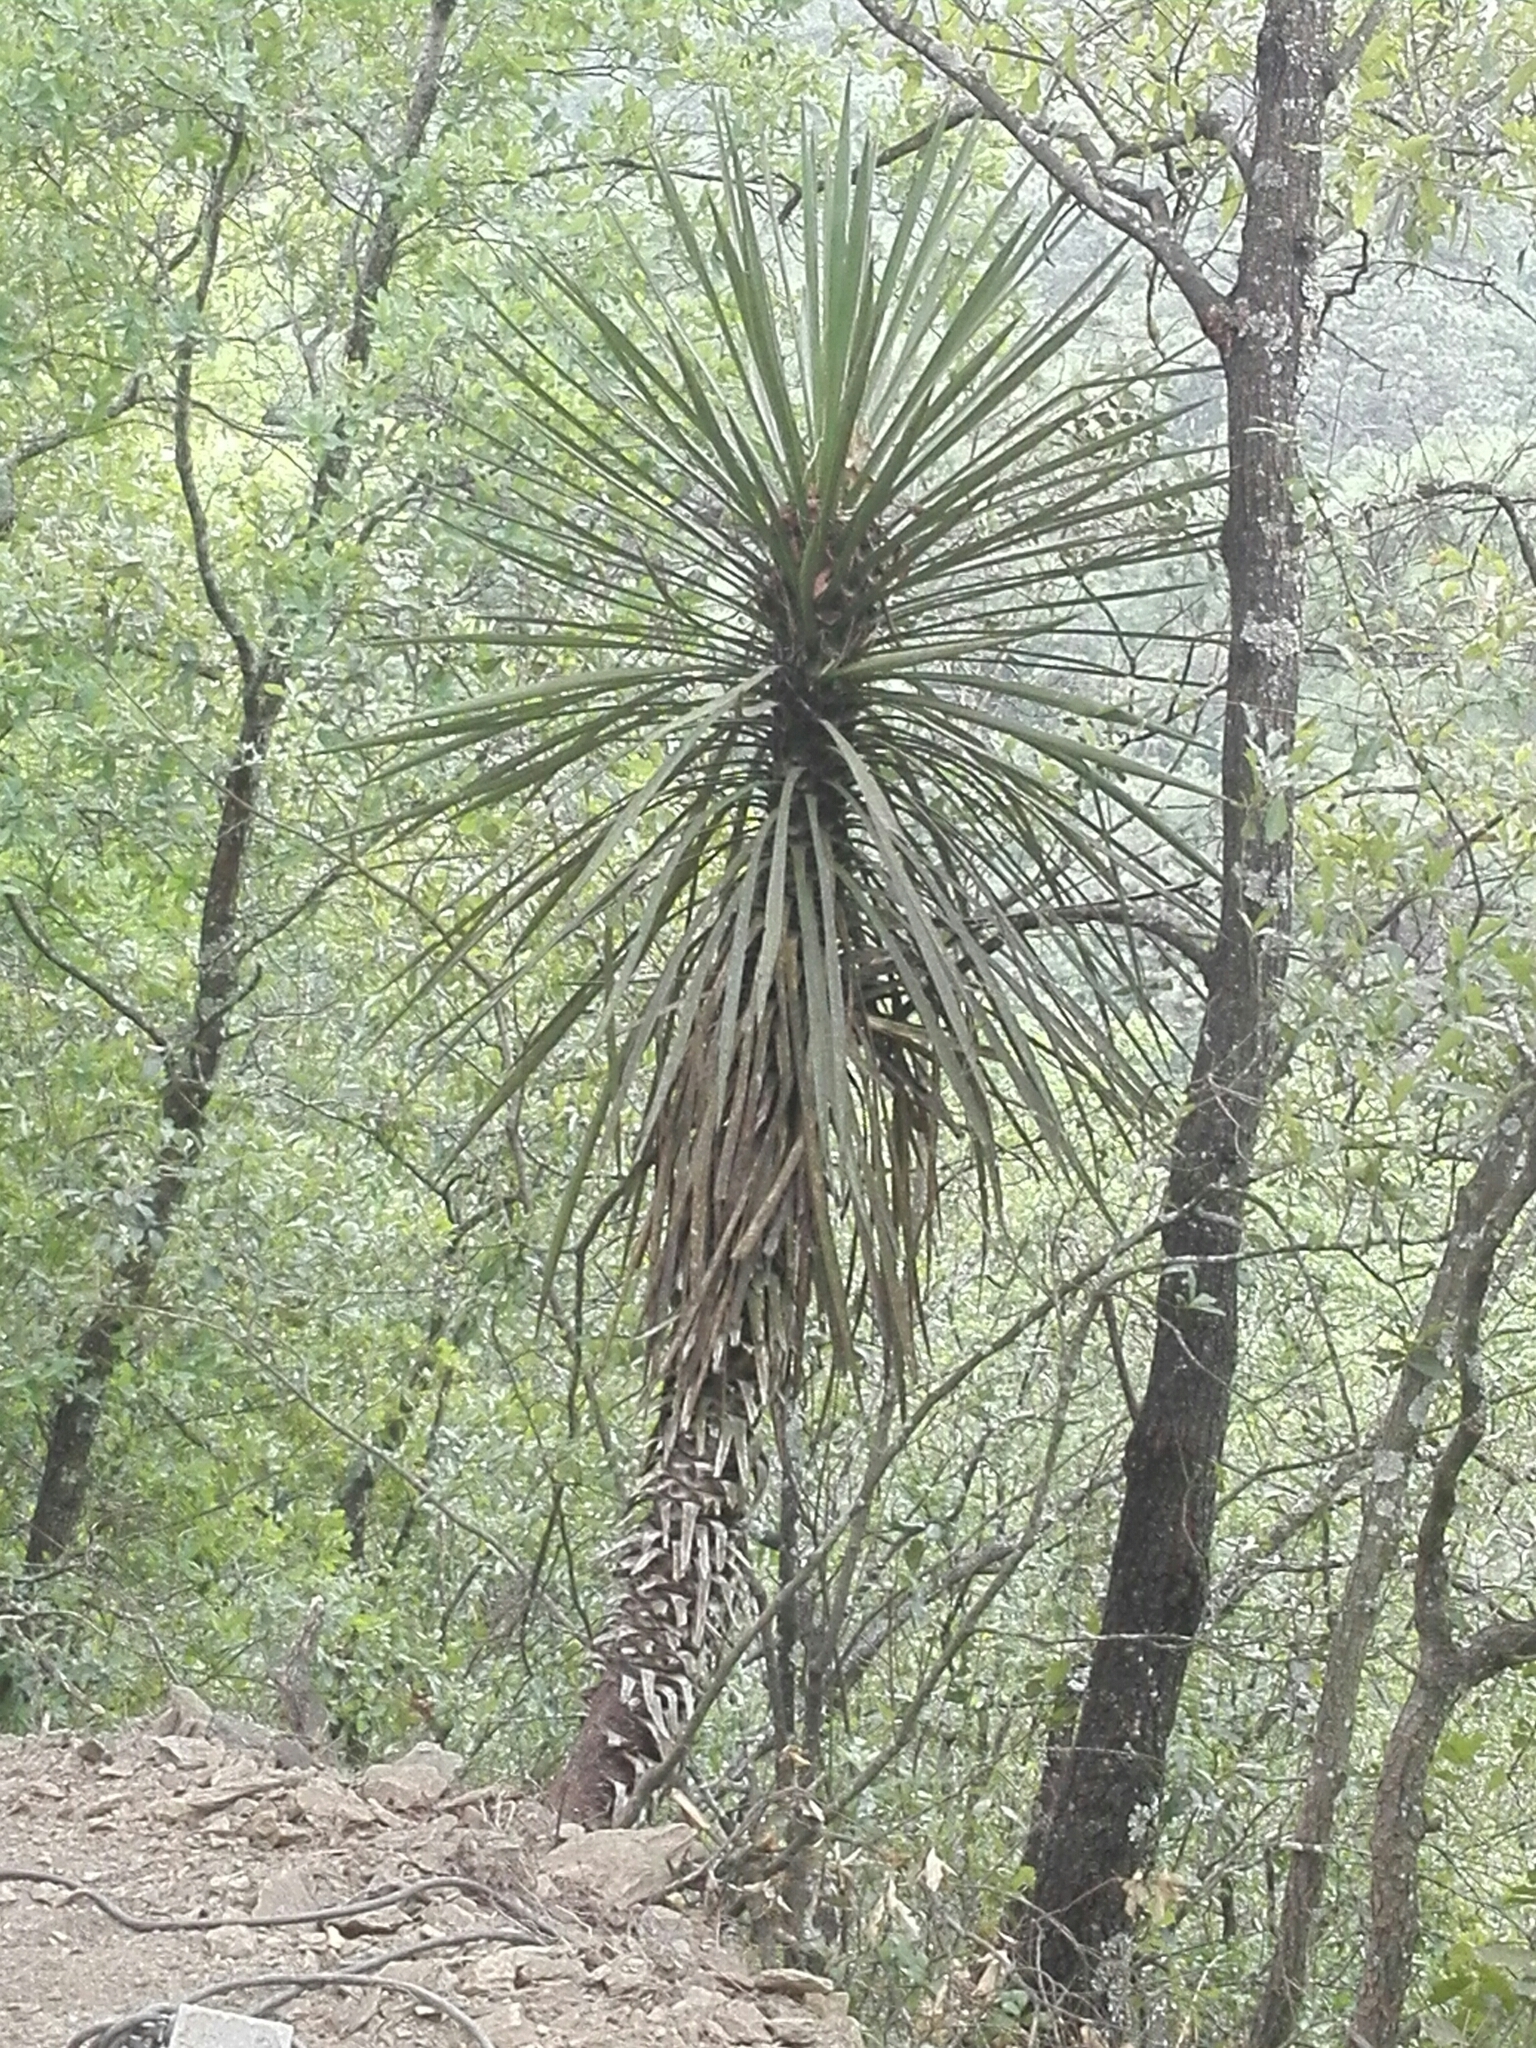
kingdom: Plantae
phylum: Tracheophyta
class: Liliopsida
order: Asparagales
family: Asparagaceae
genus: Yucca
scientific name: Yucca filifera
